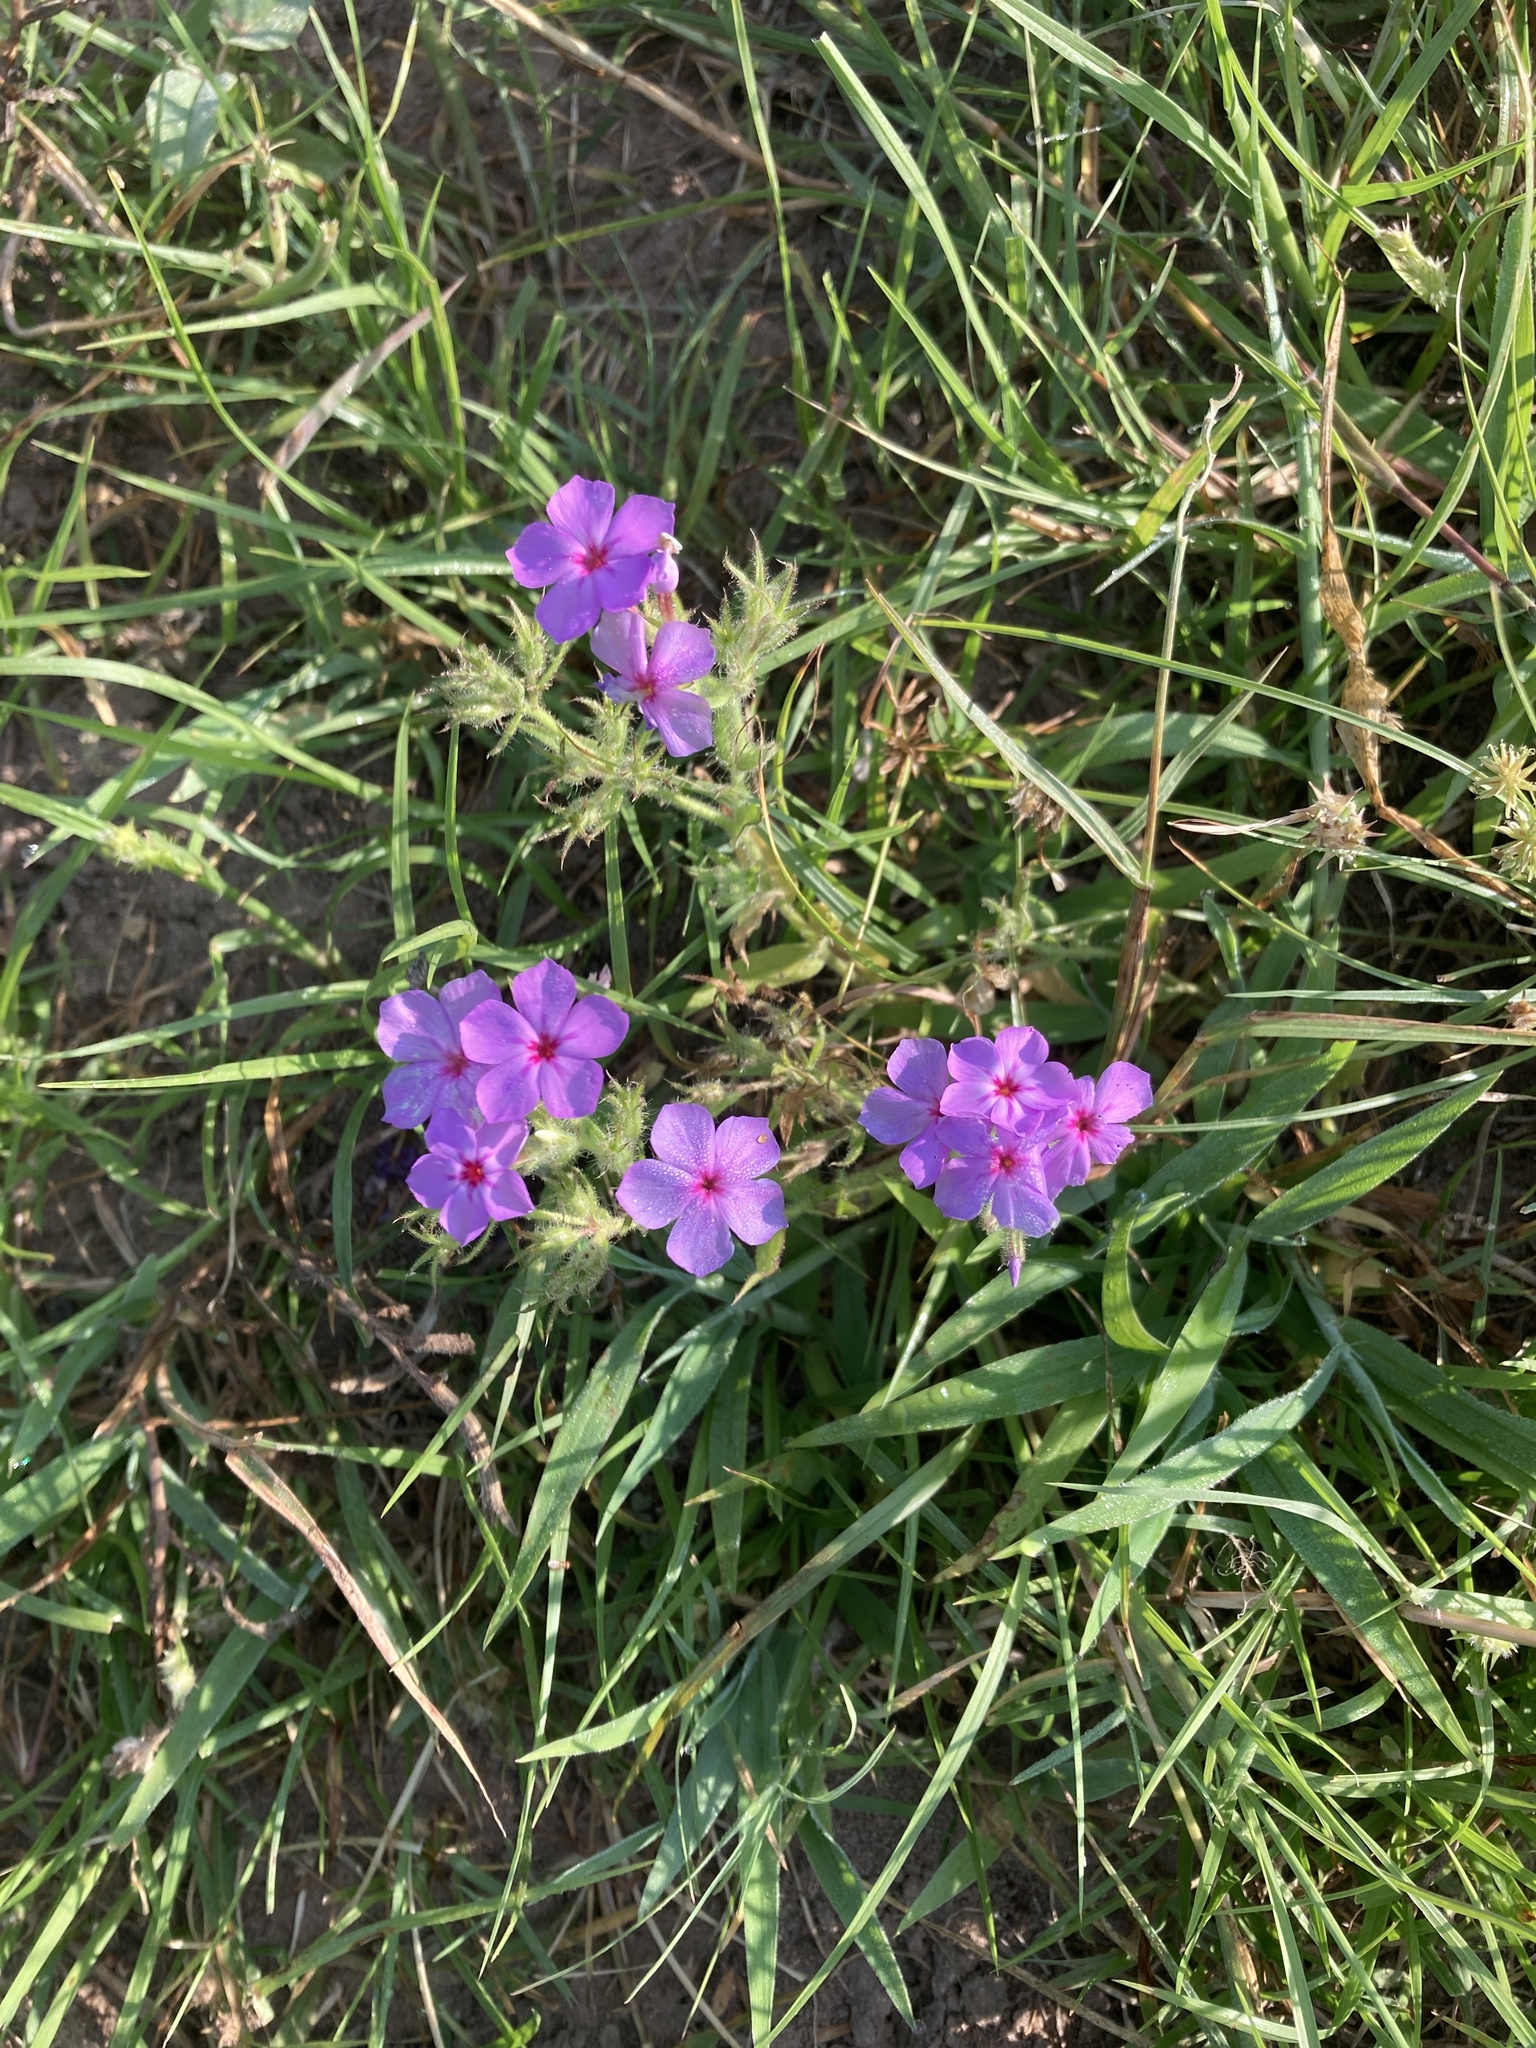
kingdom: Plantae
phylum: Tracheophyta
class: Magnoliopsida
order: Ericales
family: Polemoniaceae
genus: Phlox
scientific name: Phlox drummondii
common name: Drummond's phlox
